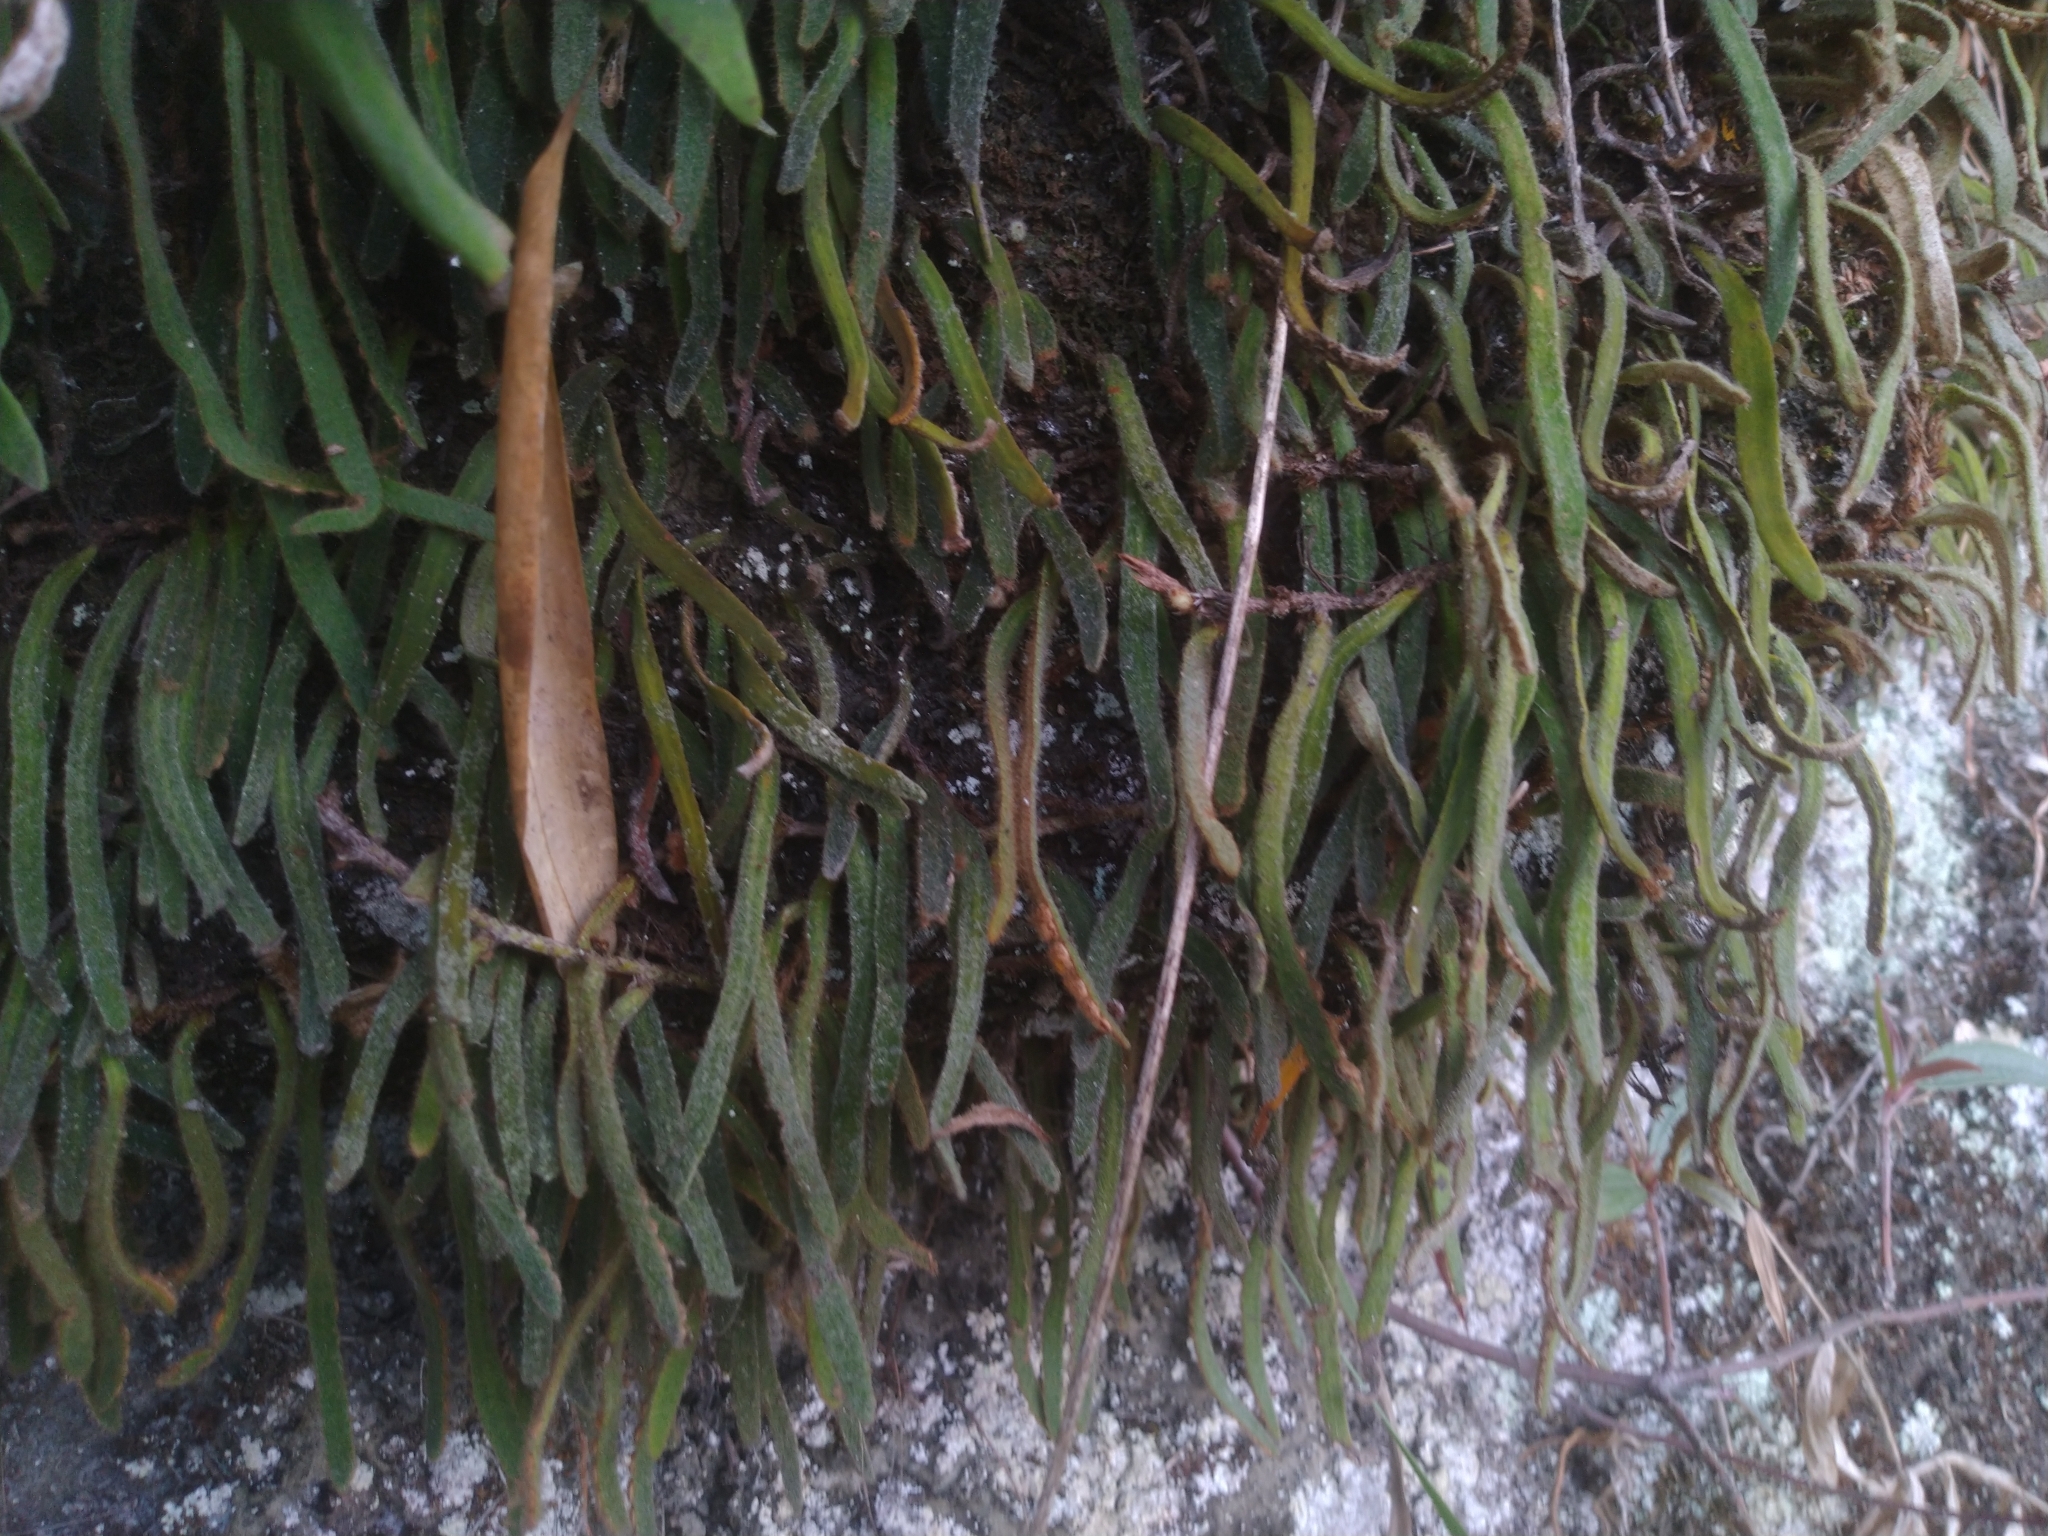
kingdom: Plantae
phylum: Tracheophyta
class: Polypodiopsida
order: Polypodiales
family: Polypodiaceae
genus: Pyrrosia
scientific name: Pyrrosia linearifolia
